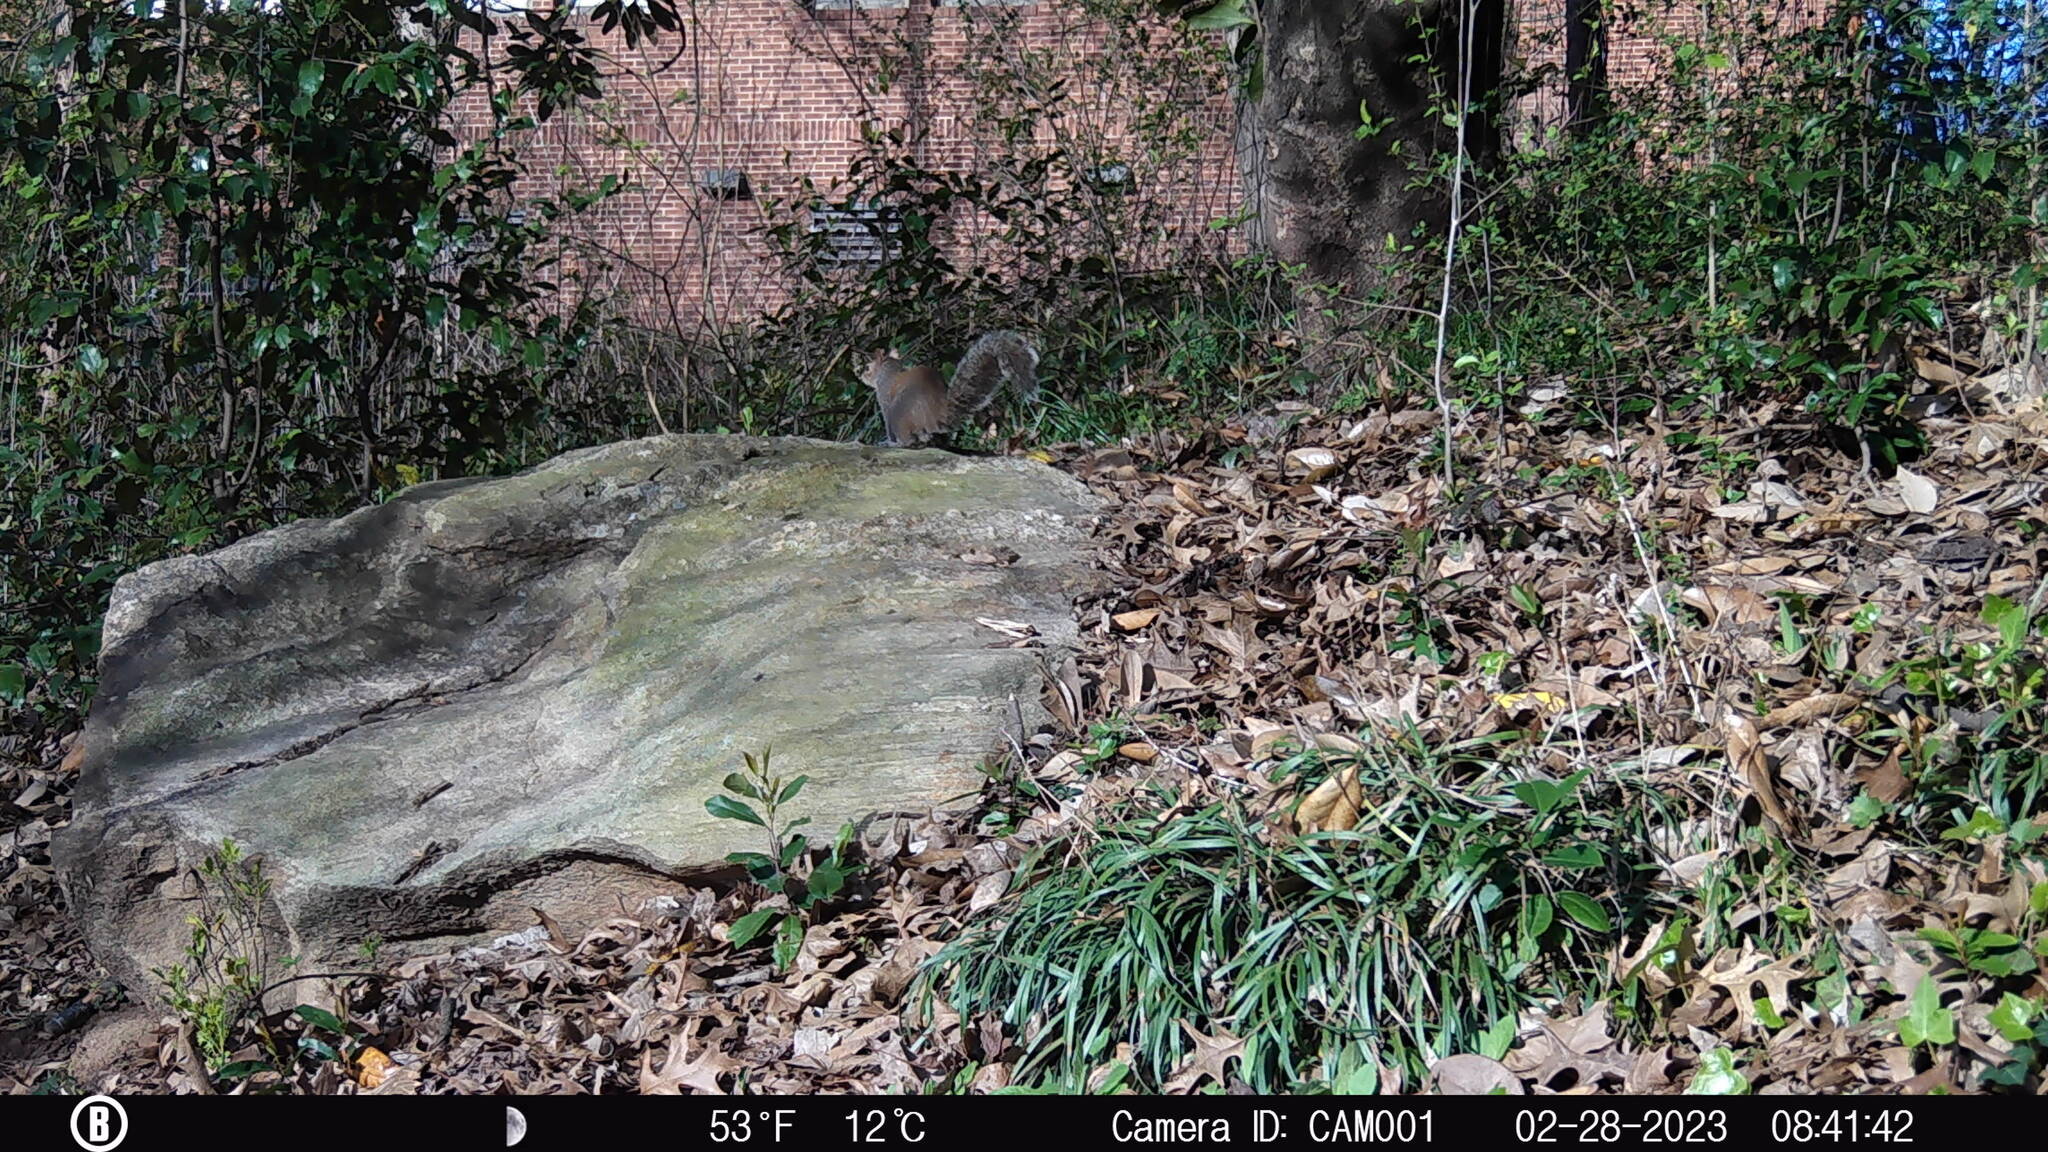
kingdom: Animalia
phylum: Chordata
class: Mammalia
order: Rodentia
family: Sciuridae
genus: Sciurus
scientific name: Sciurus carolinensis
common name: Eastern gray squirrel
